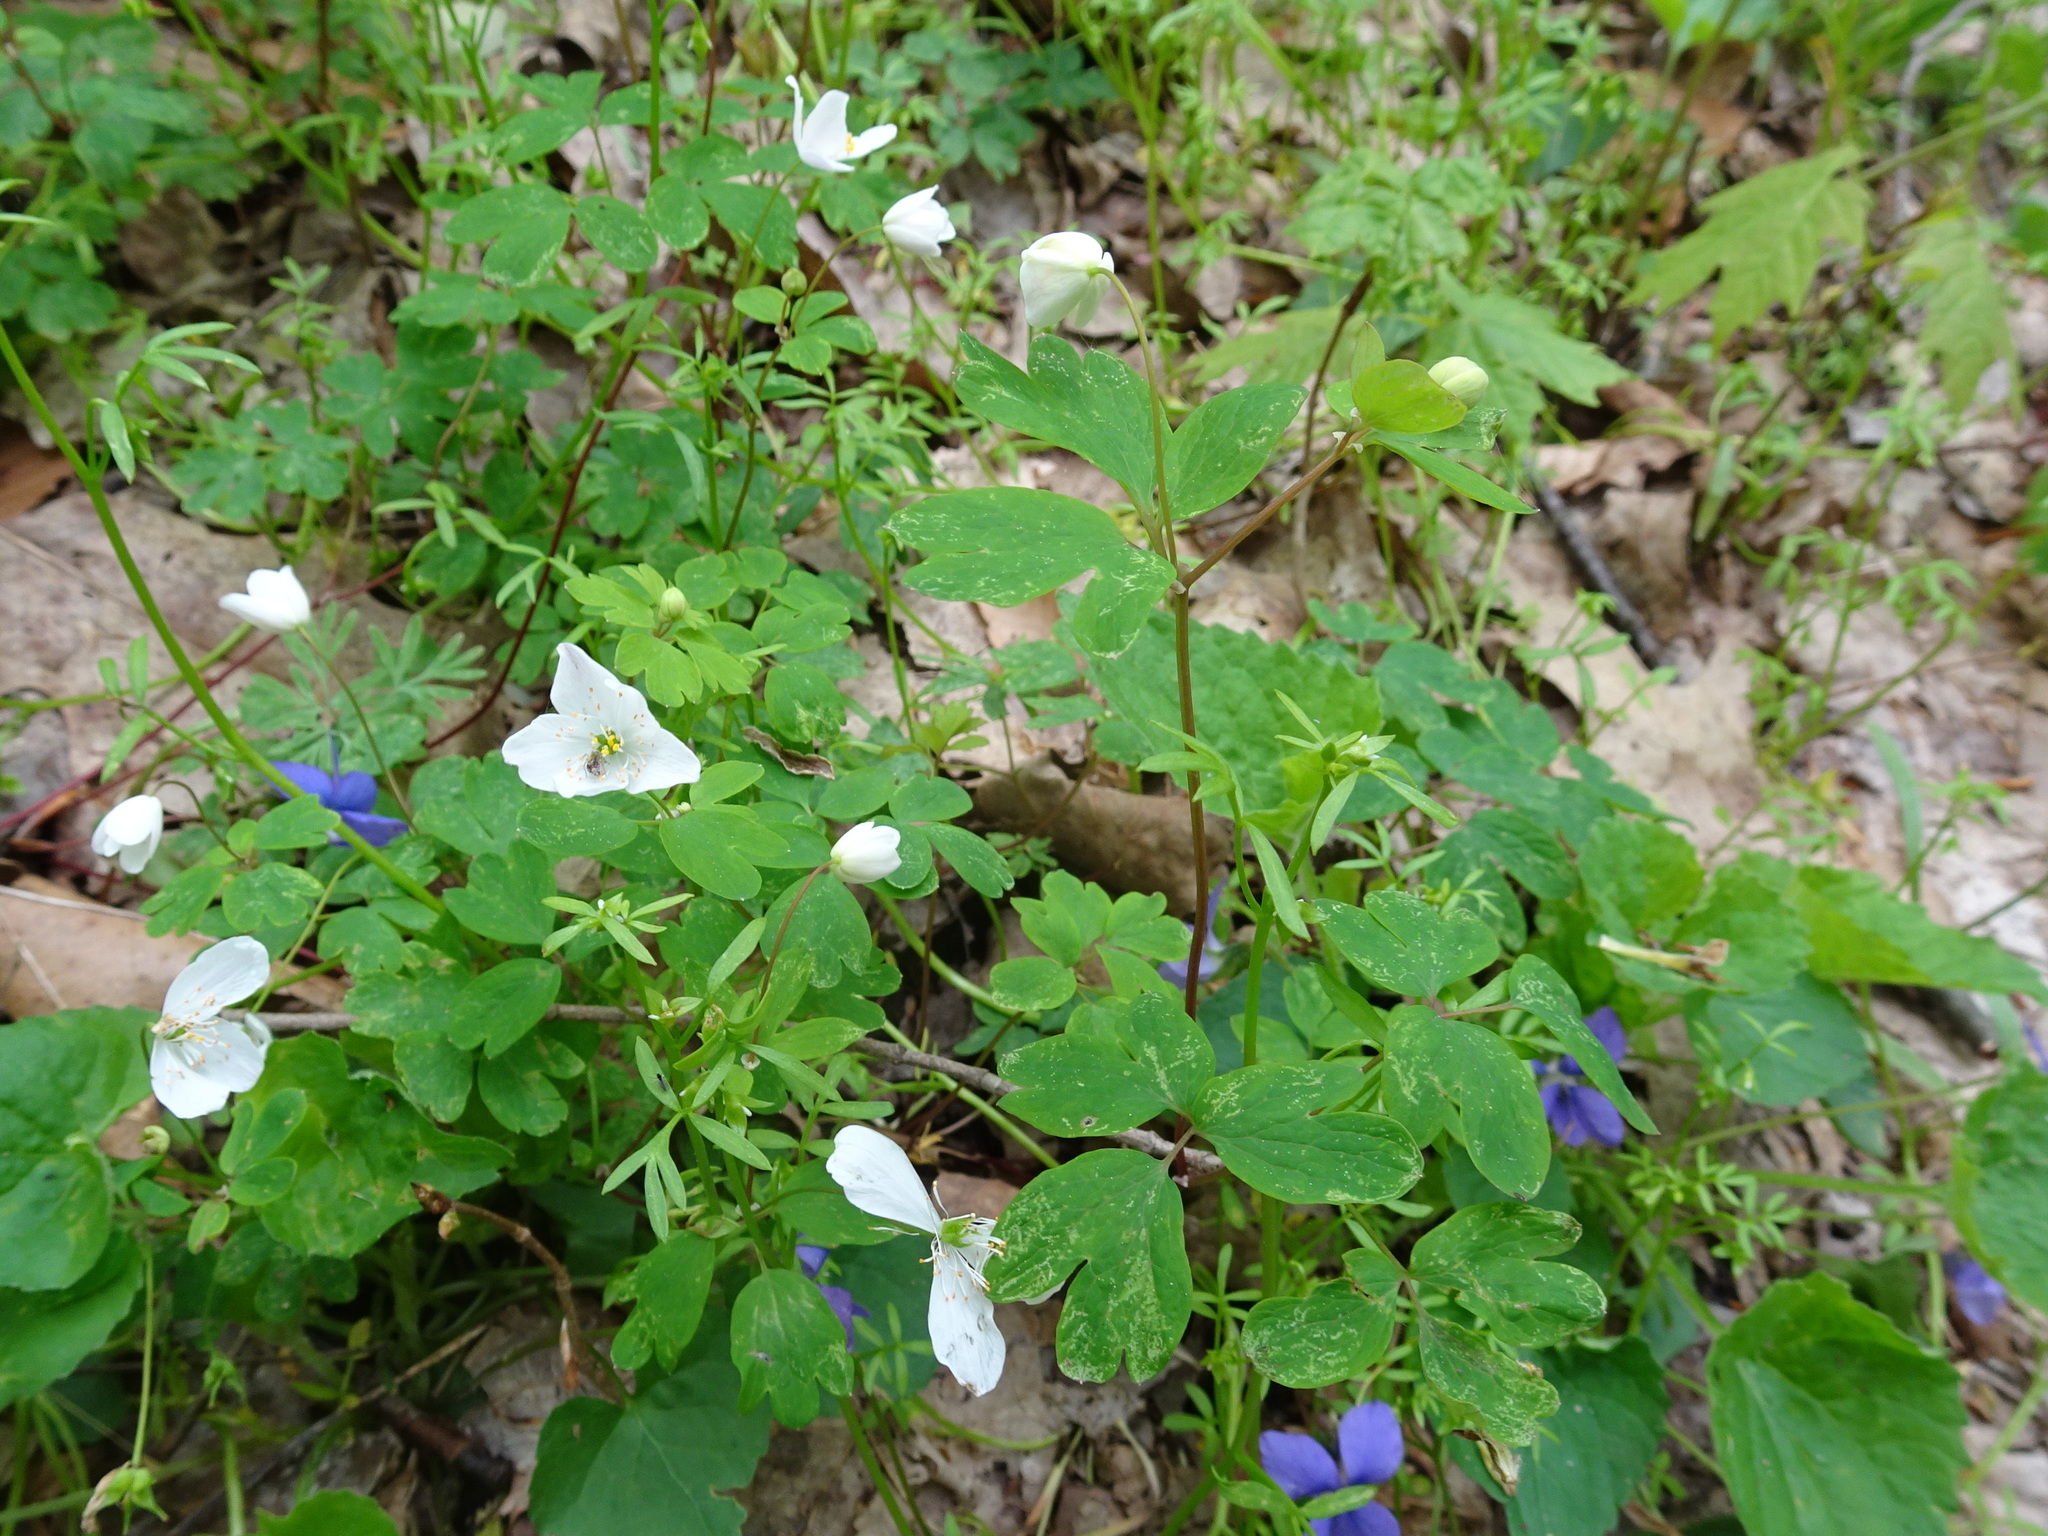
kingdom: Plantae
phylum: Tracheophyta
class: Magnoliopsida
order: Ranunculales
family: Ranunculaceae
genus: Enemion
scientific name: Enemion biternatum
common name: Eastern false rue-anemone
